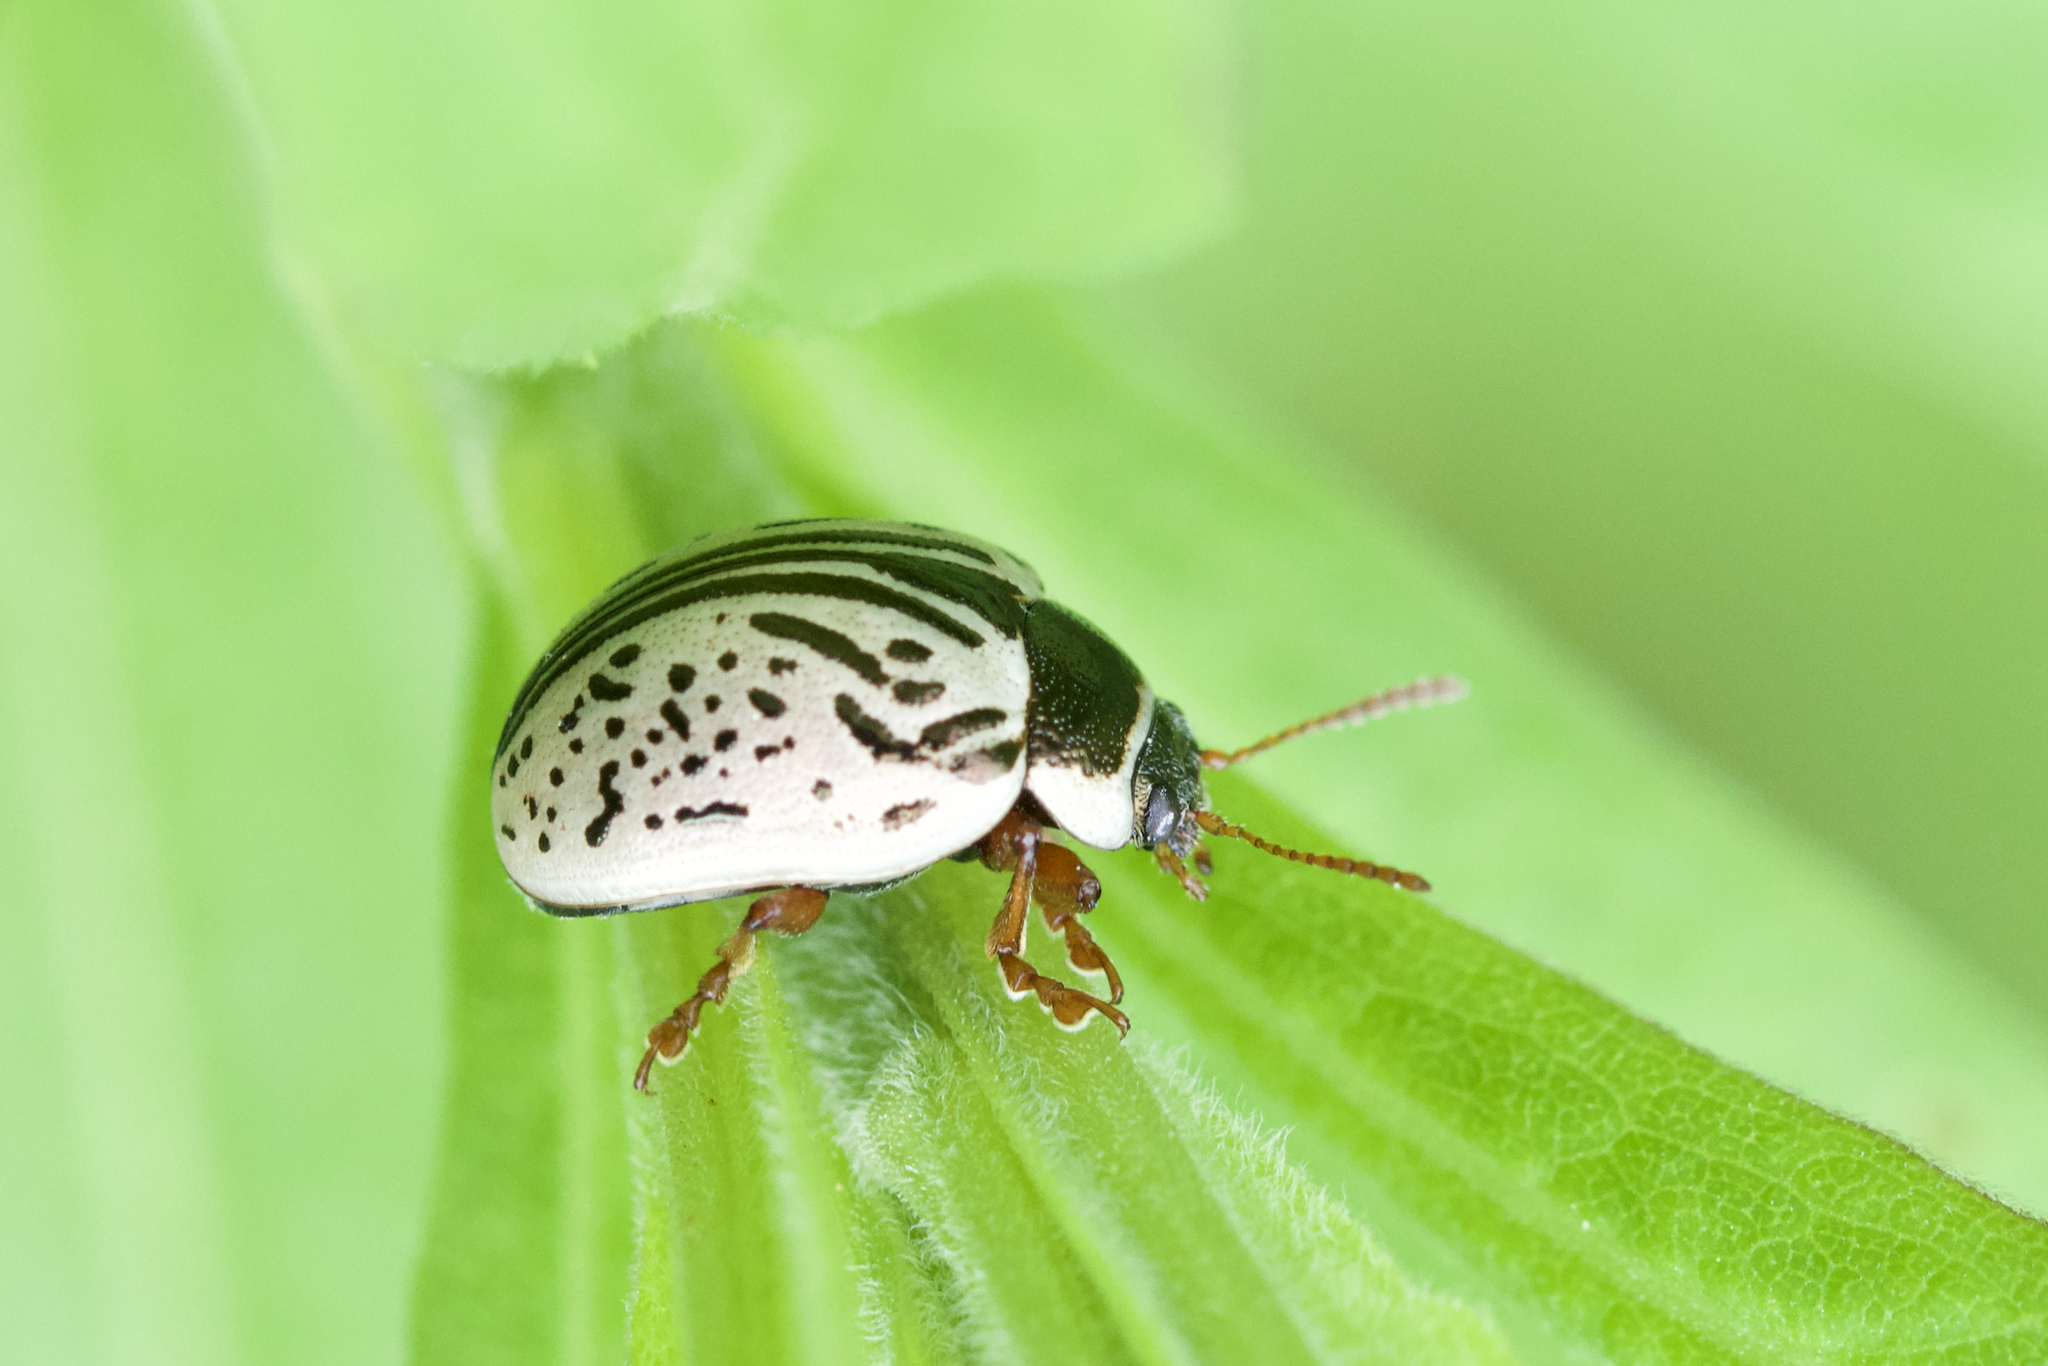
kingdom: Animalia
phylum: Arthropoda
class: Insecta
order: Coleoptera
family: Chrysomelidae
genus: Calligrapha
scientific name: Calligrapha multipunctata
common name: Common willow calligrapher beetle
